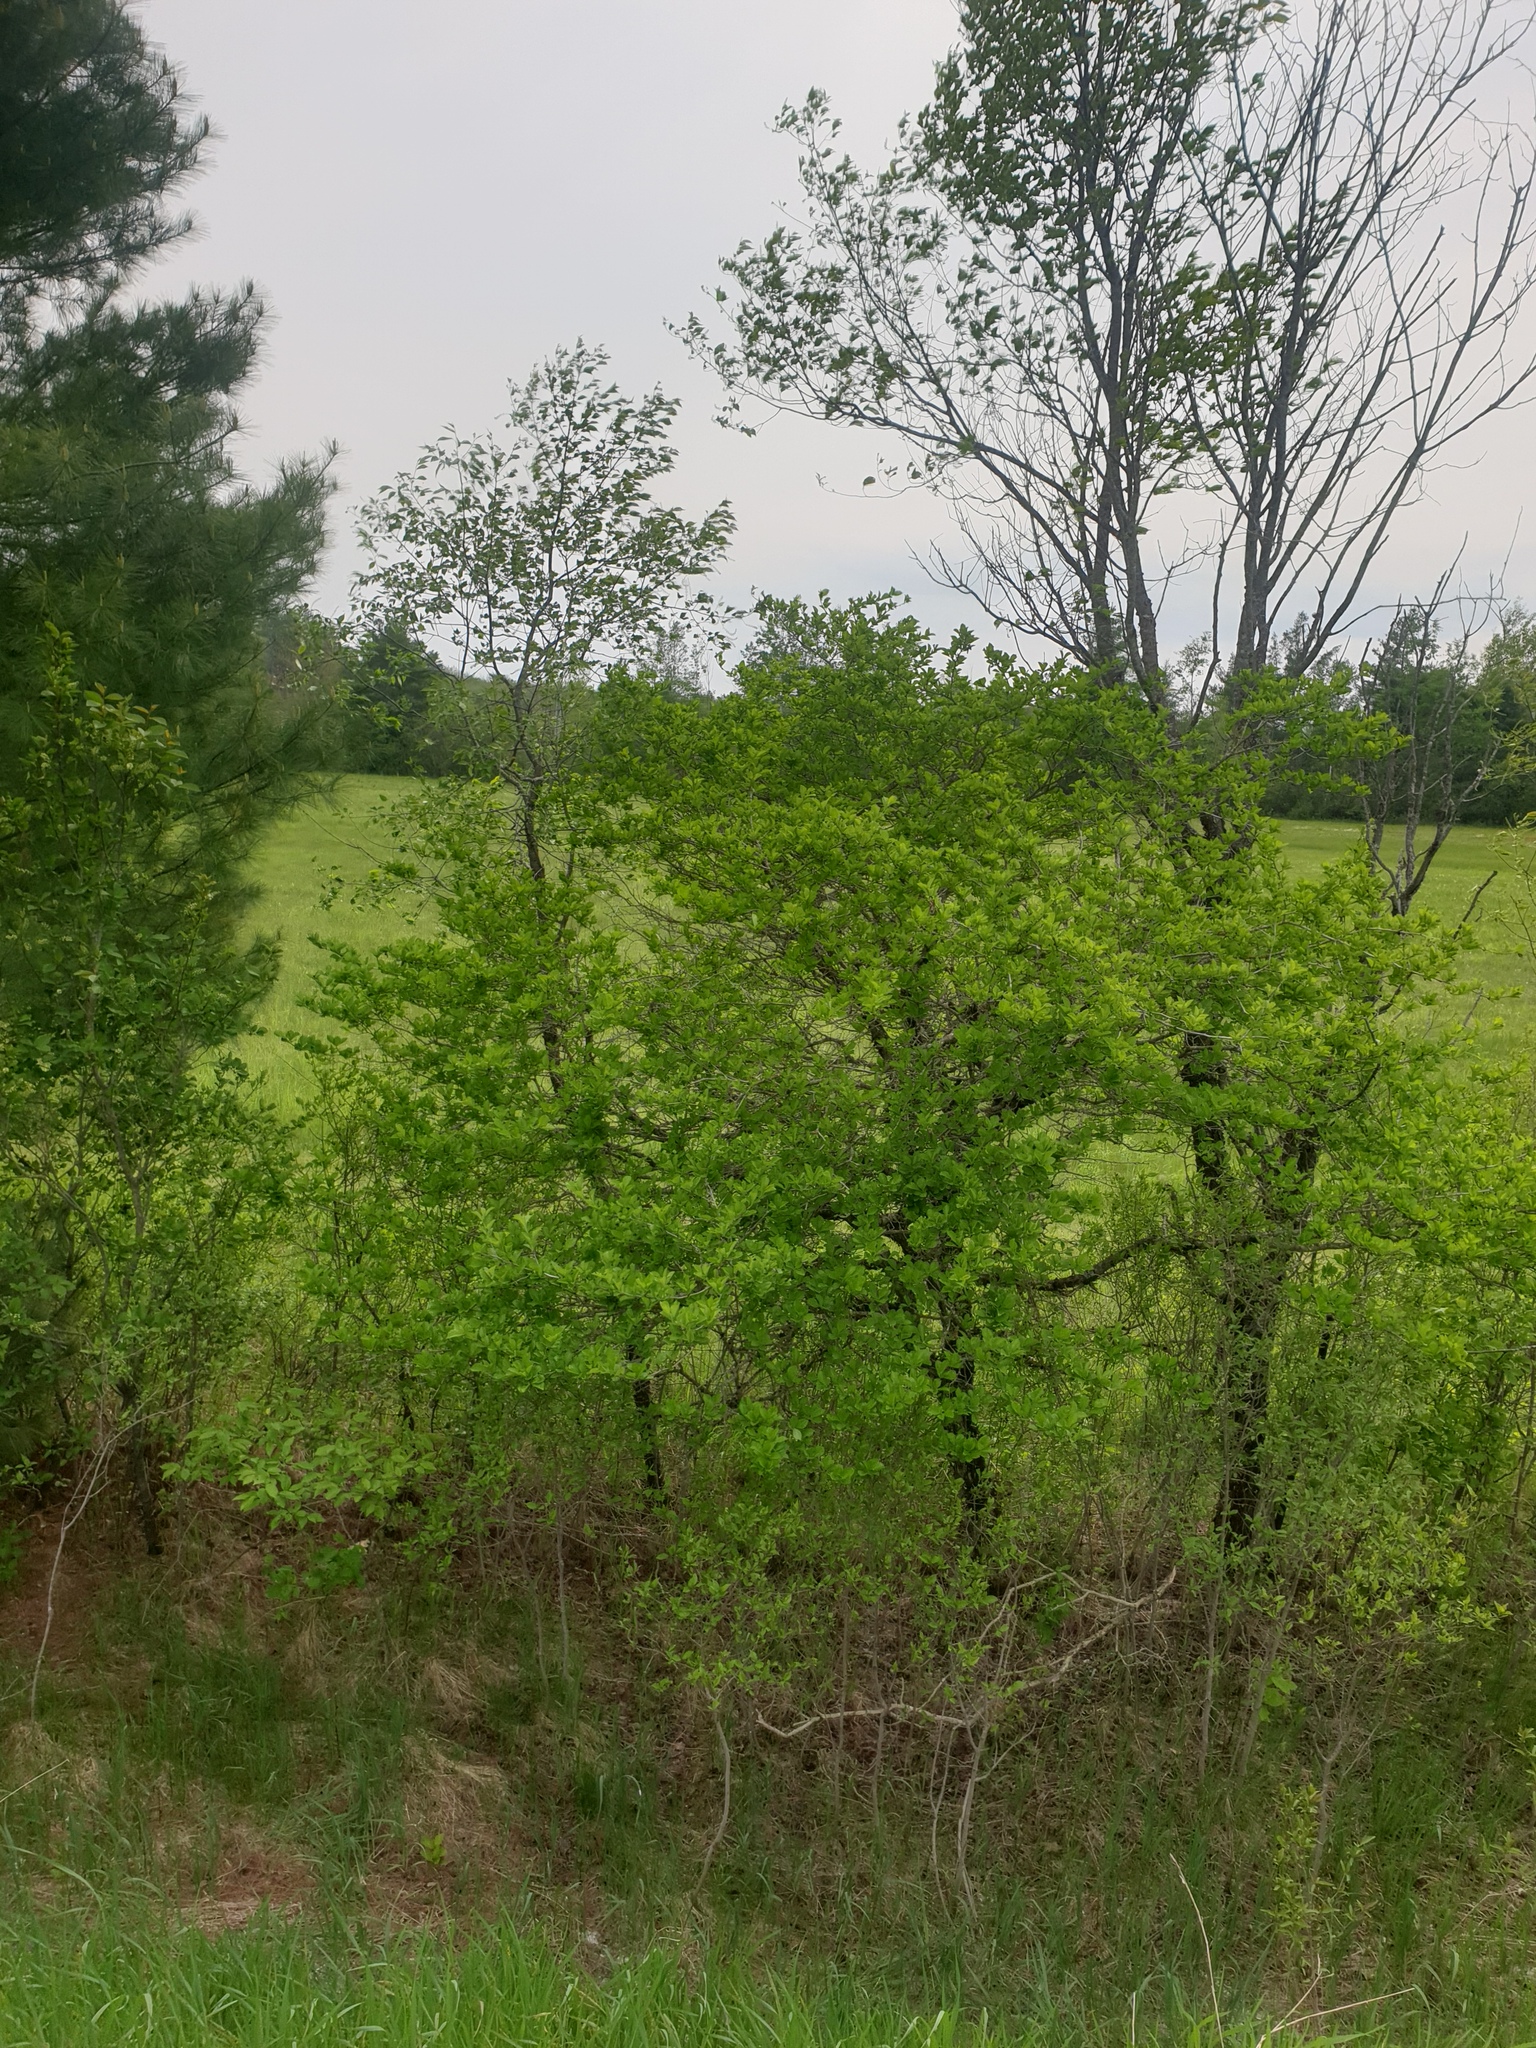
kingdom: Plantae
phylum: Tracheophyta
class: Magnoliopsida
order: Rosales
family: Rosaceae
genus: Crataegus
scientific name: Crataegus punctata
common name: Dotted hawthorn
